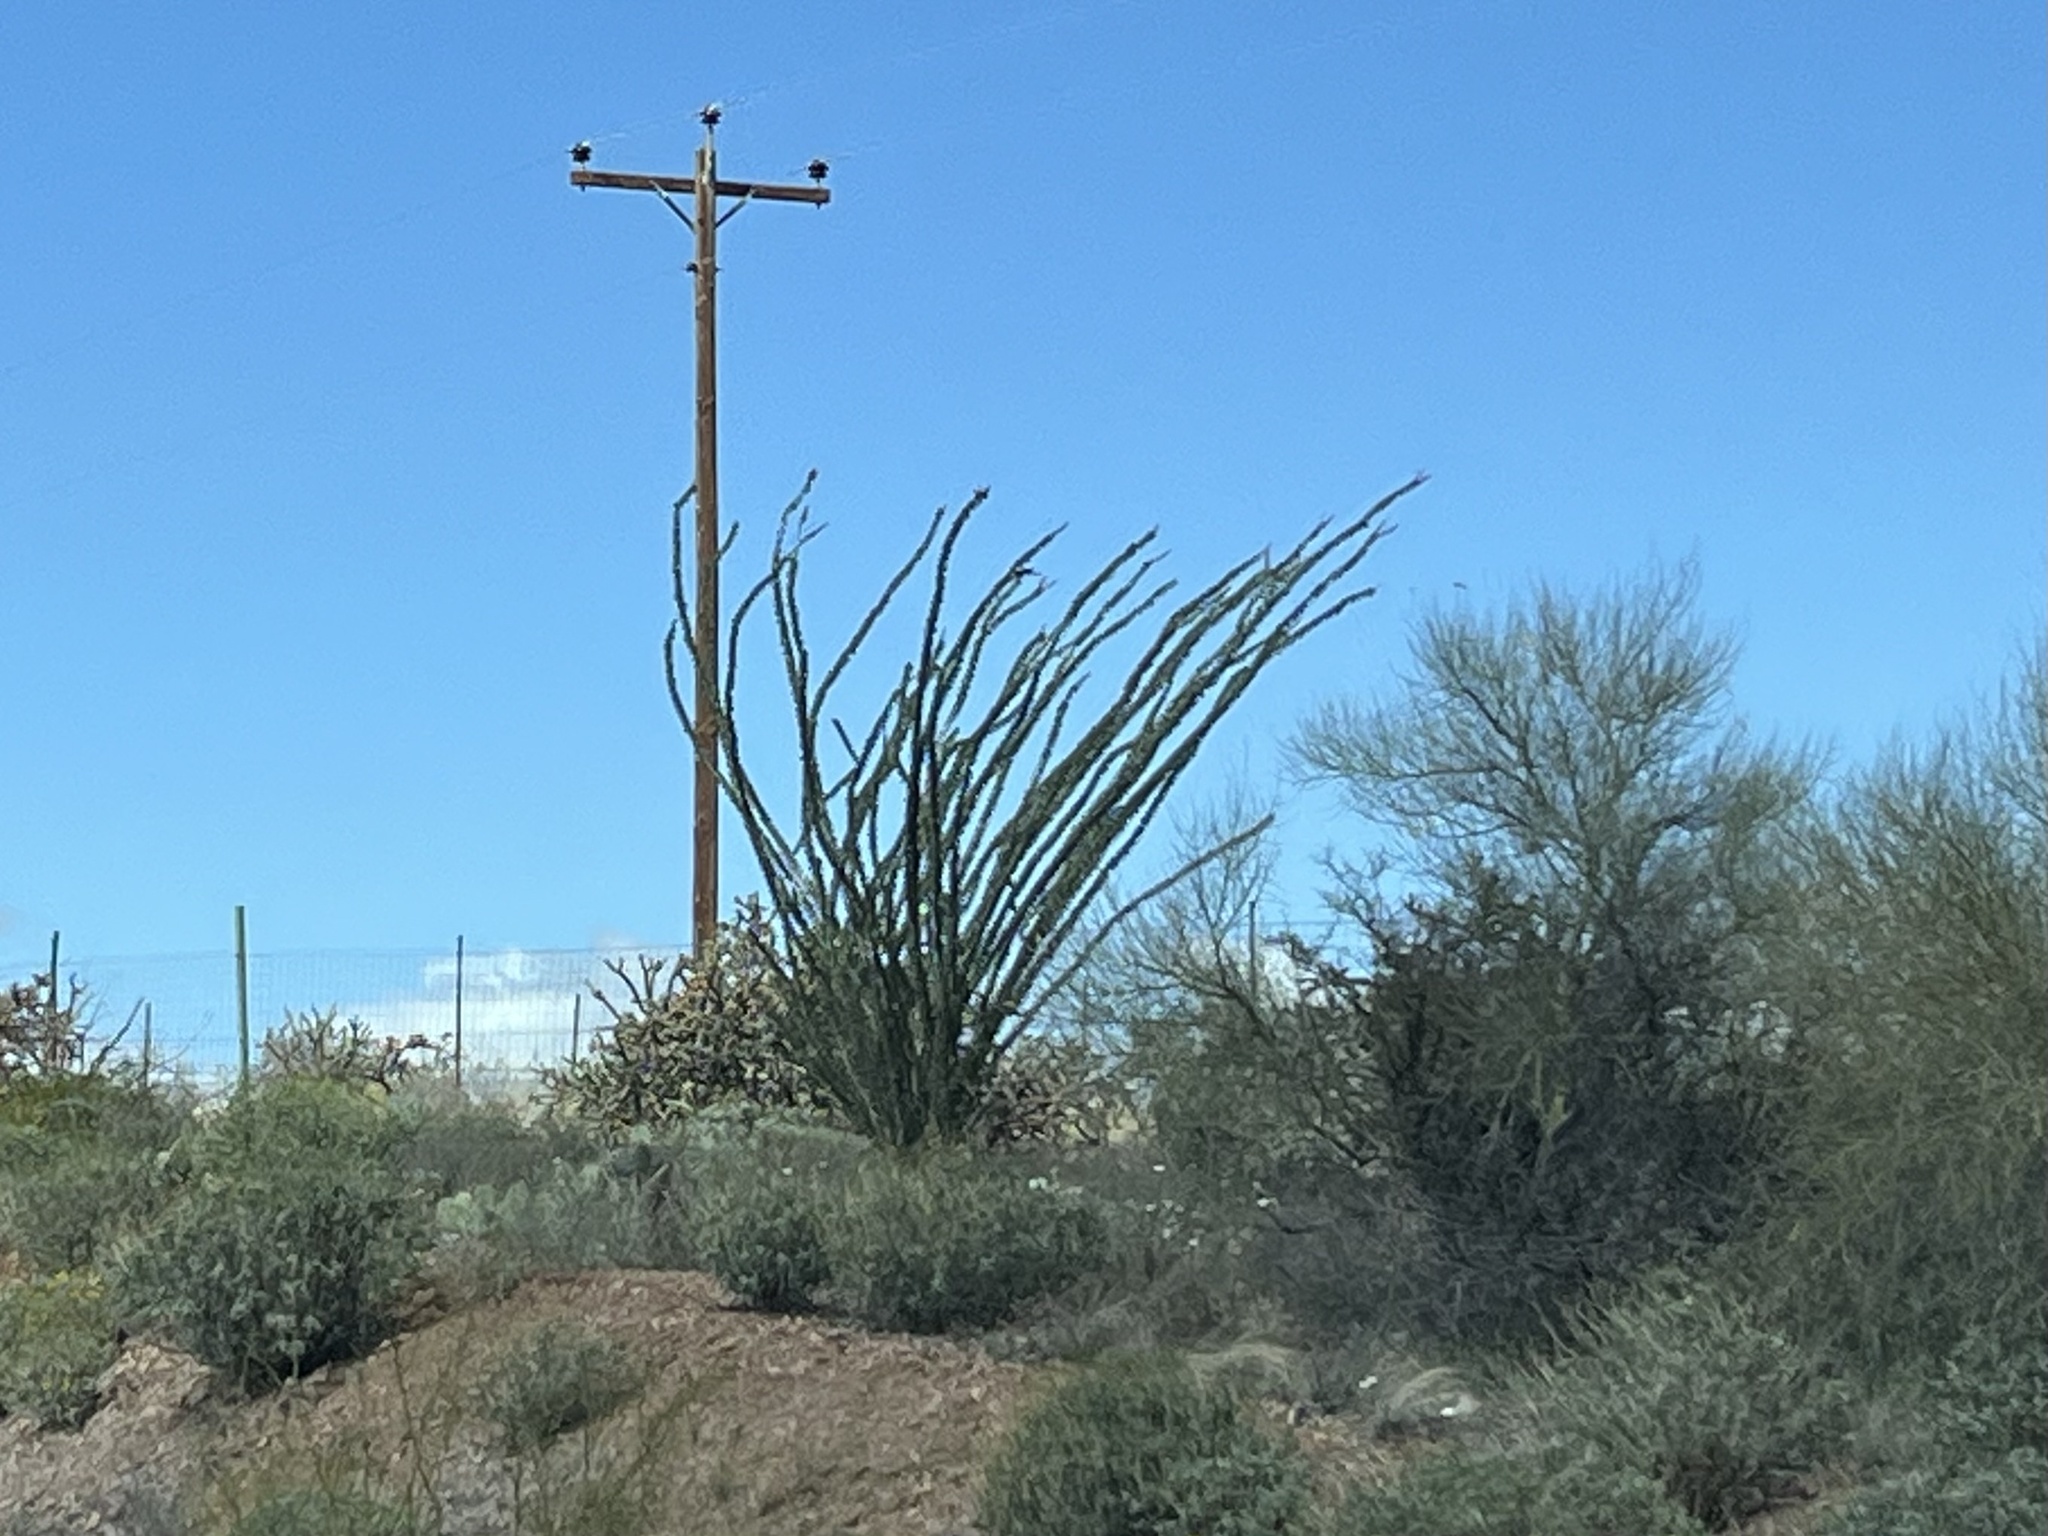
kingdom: Plantae
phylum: Tracheophyta
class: Magnoliopsida
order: Ericales
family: Fouquieriaceae
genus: Fouquieria
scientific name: Fouquieria splendens
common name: Vine-cactus
